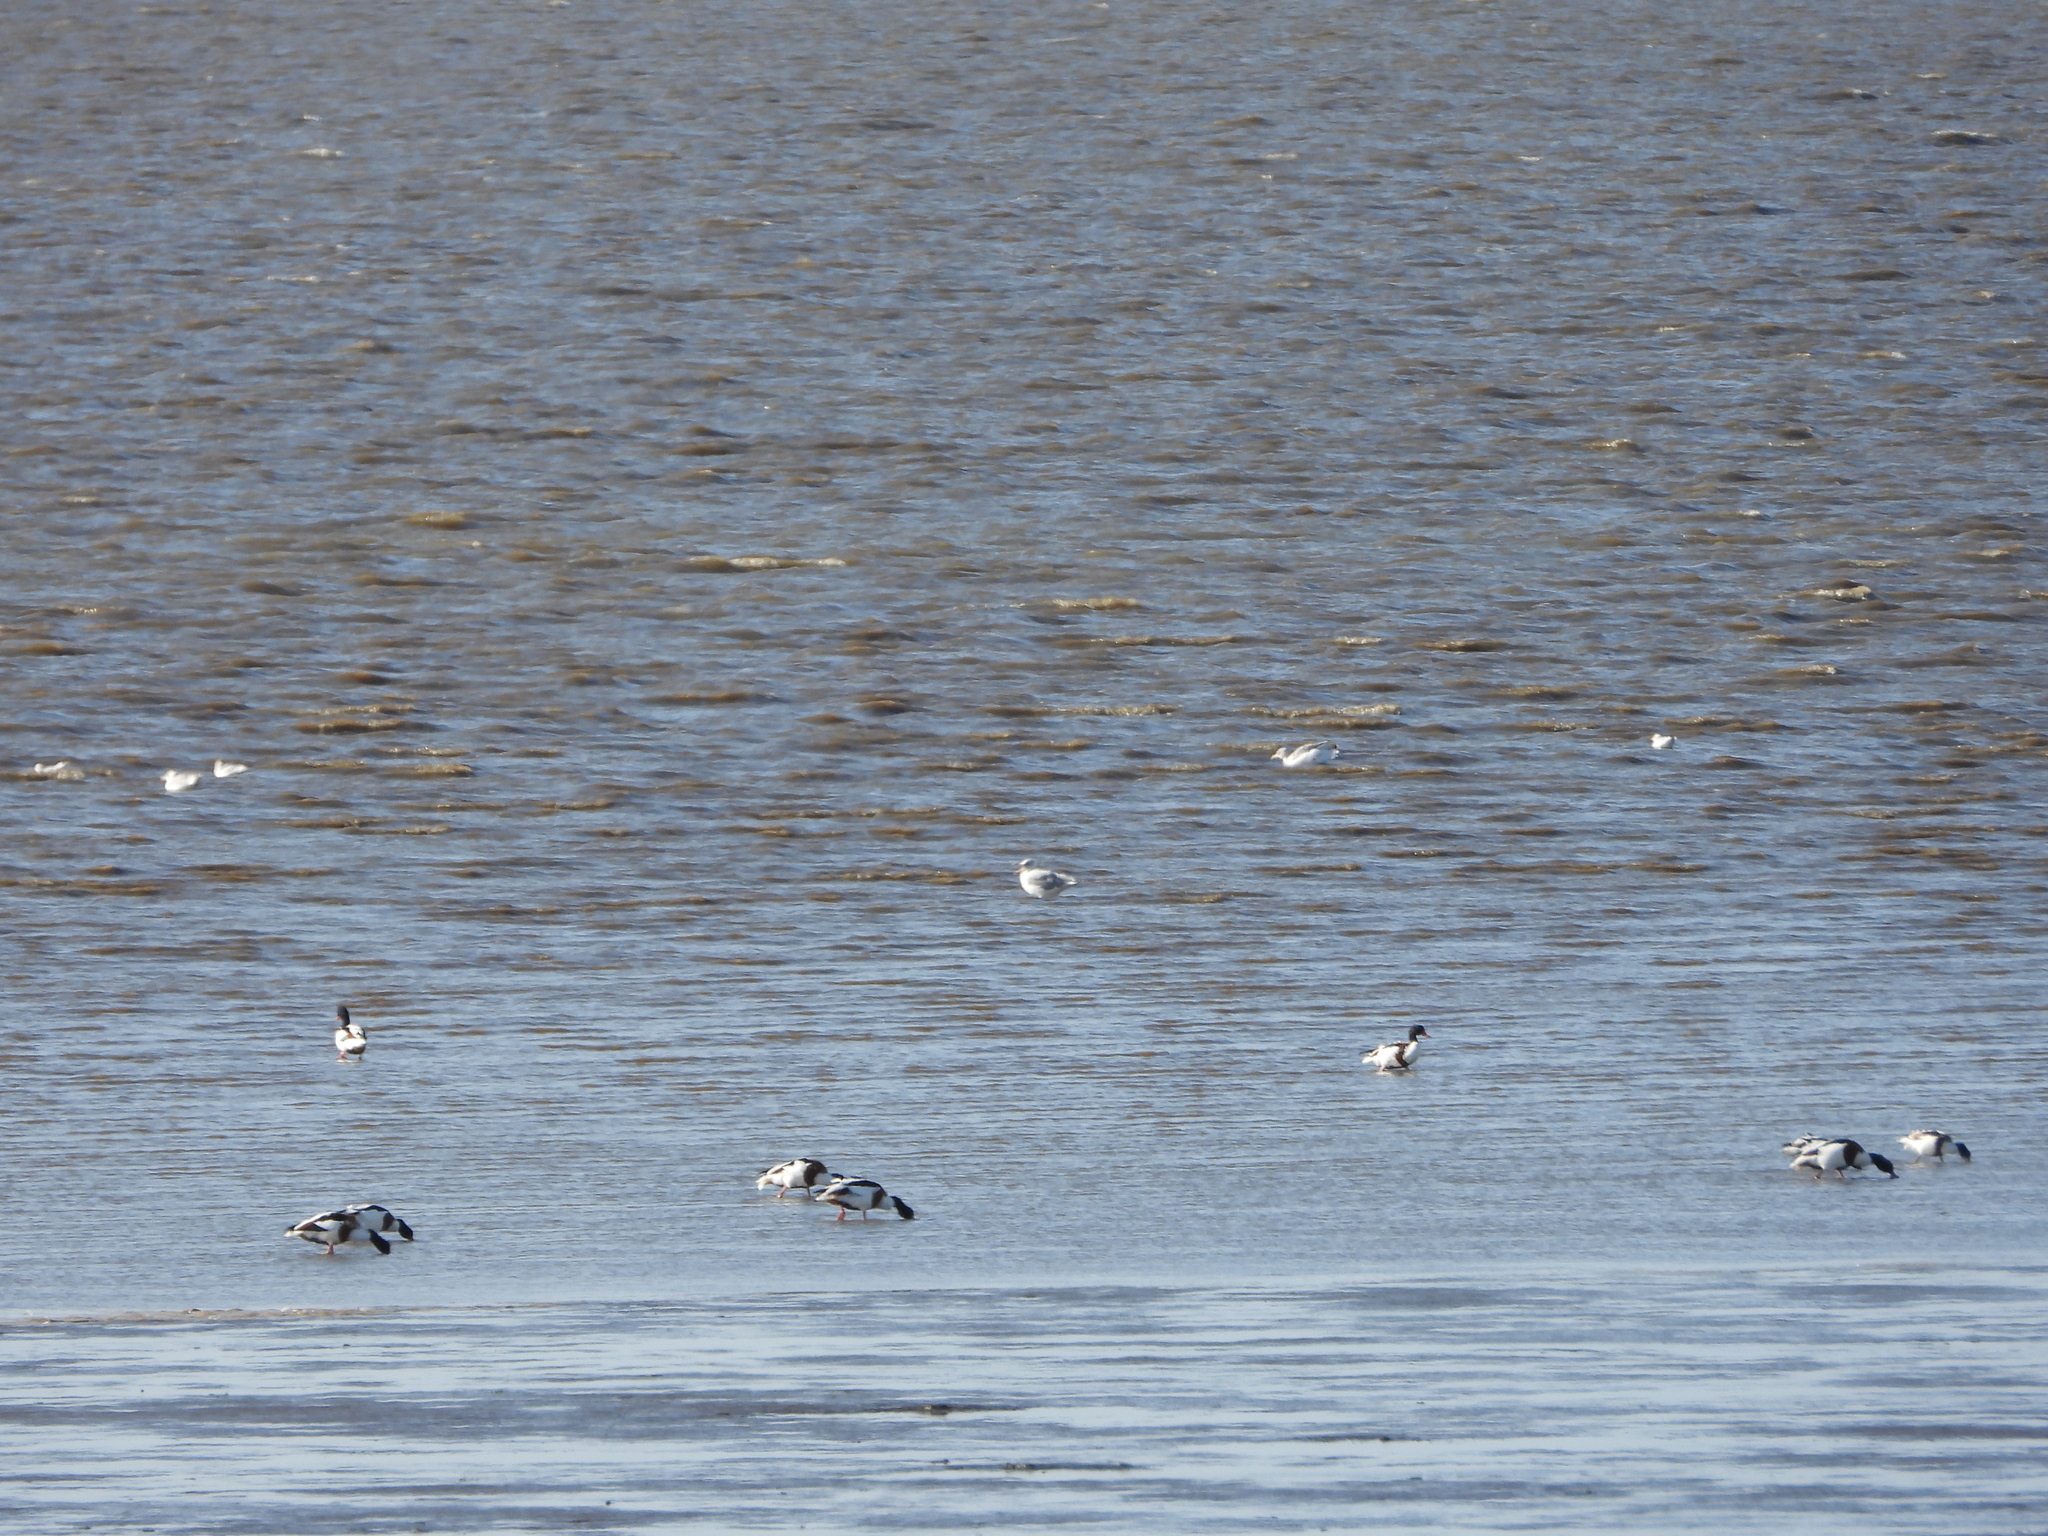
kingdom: Animalia
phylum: Chordata
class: Aves
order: Anseriformes
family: Anatidae
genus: Tadorna
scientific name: Tadorna tadorna
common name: Common shelduck
